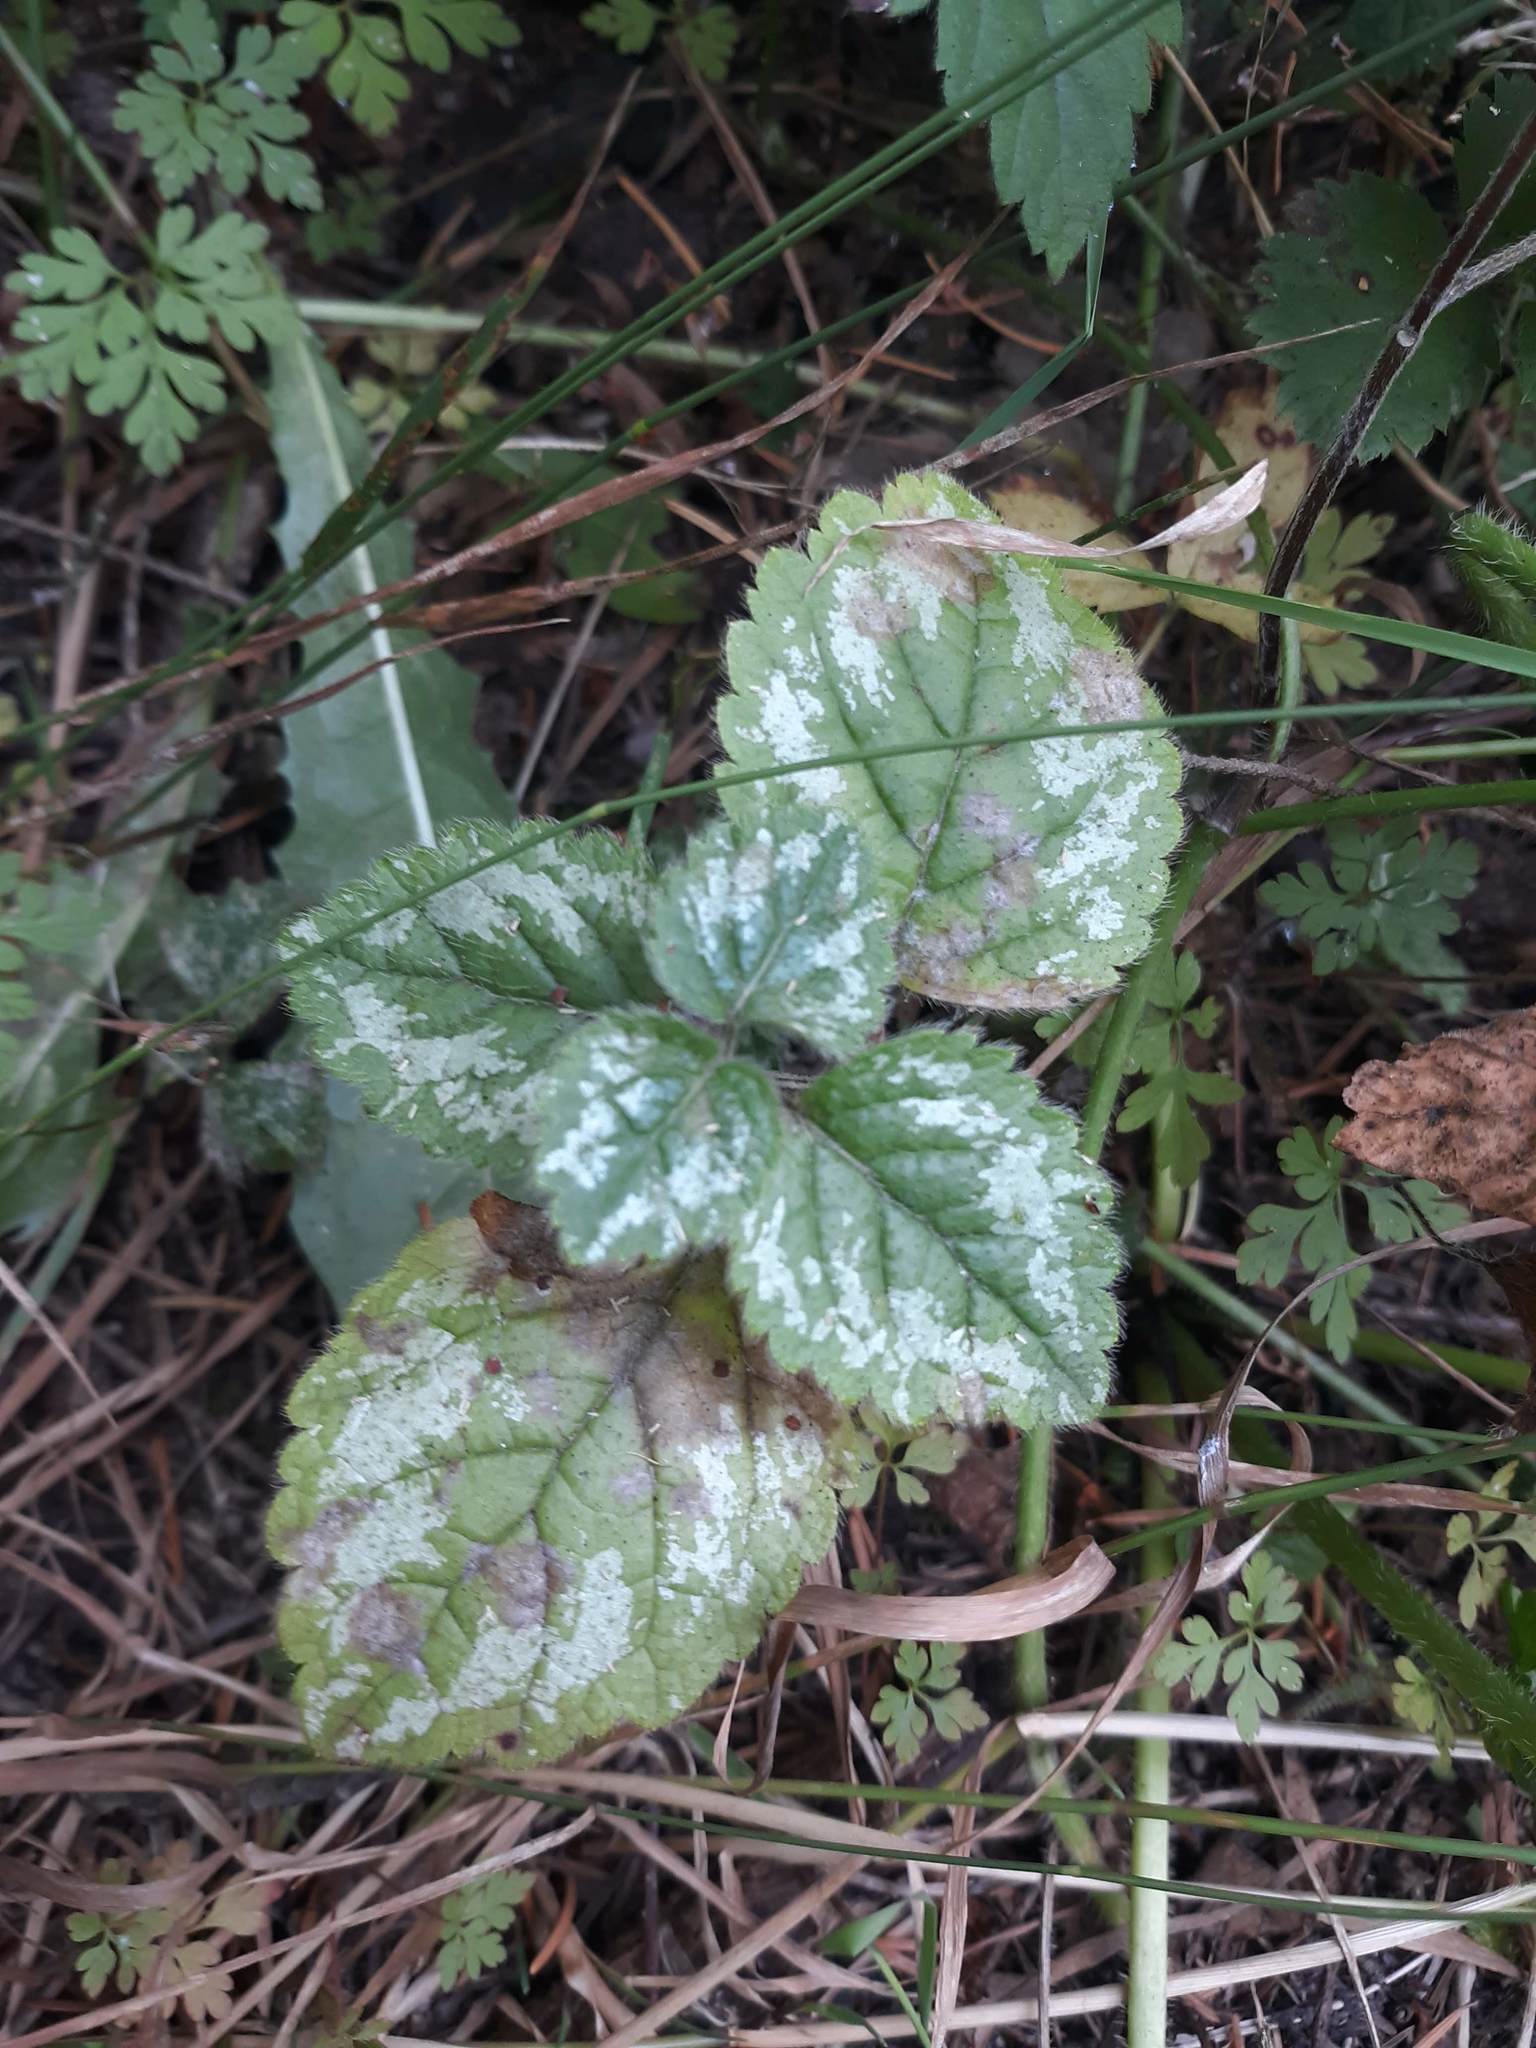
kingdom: Plantae
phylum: Tracheophyta
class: Magnoliopsida
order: Lamiales
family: Lamiaceae
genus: Lamium
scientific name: Lamium galeobdolon
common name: Yellow archangel
